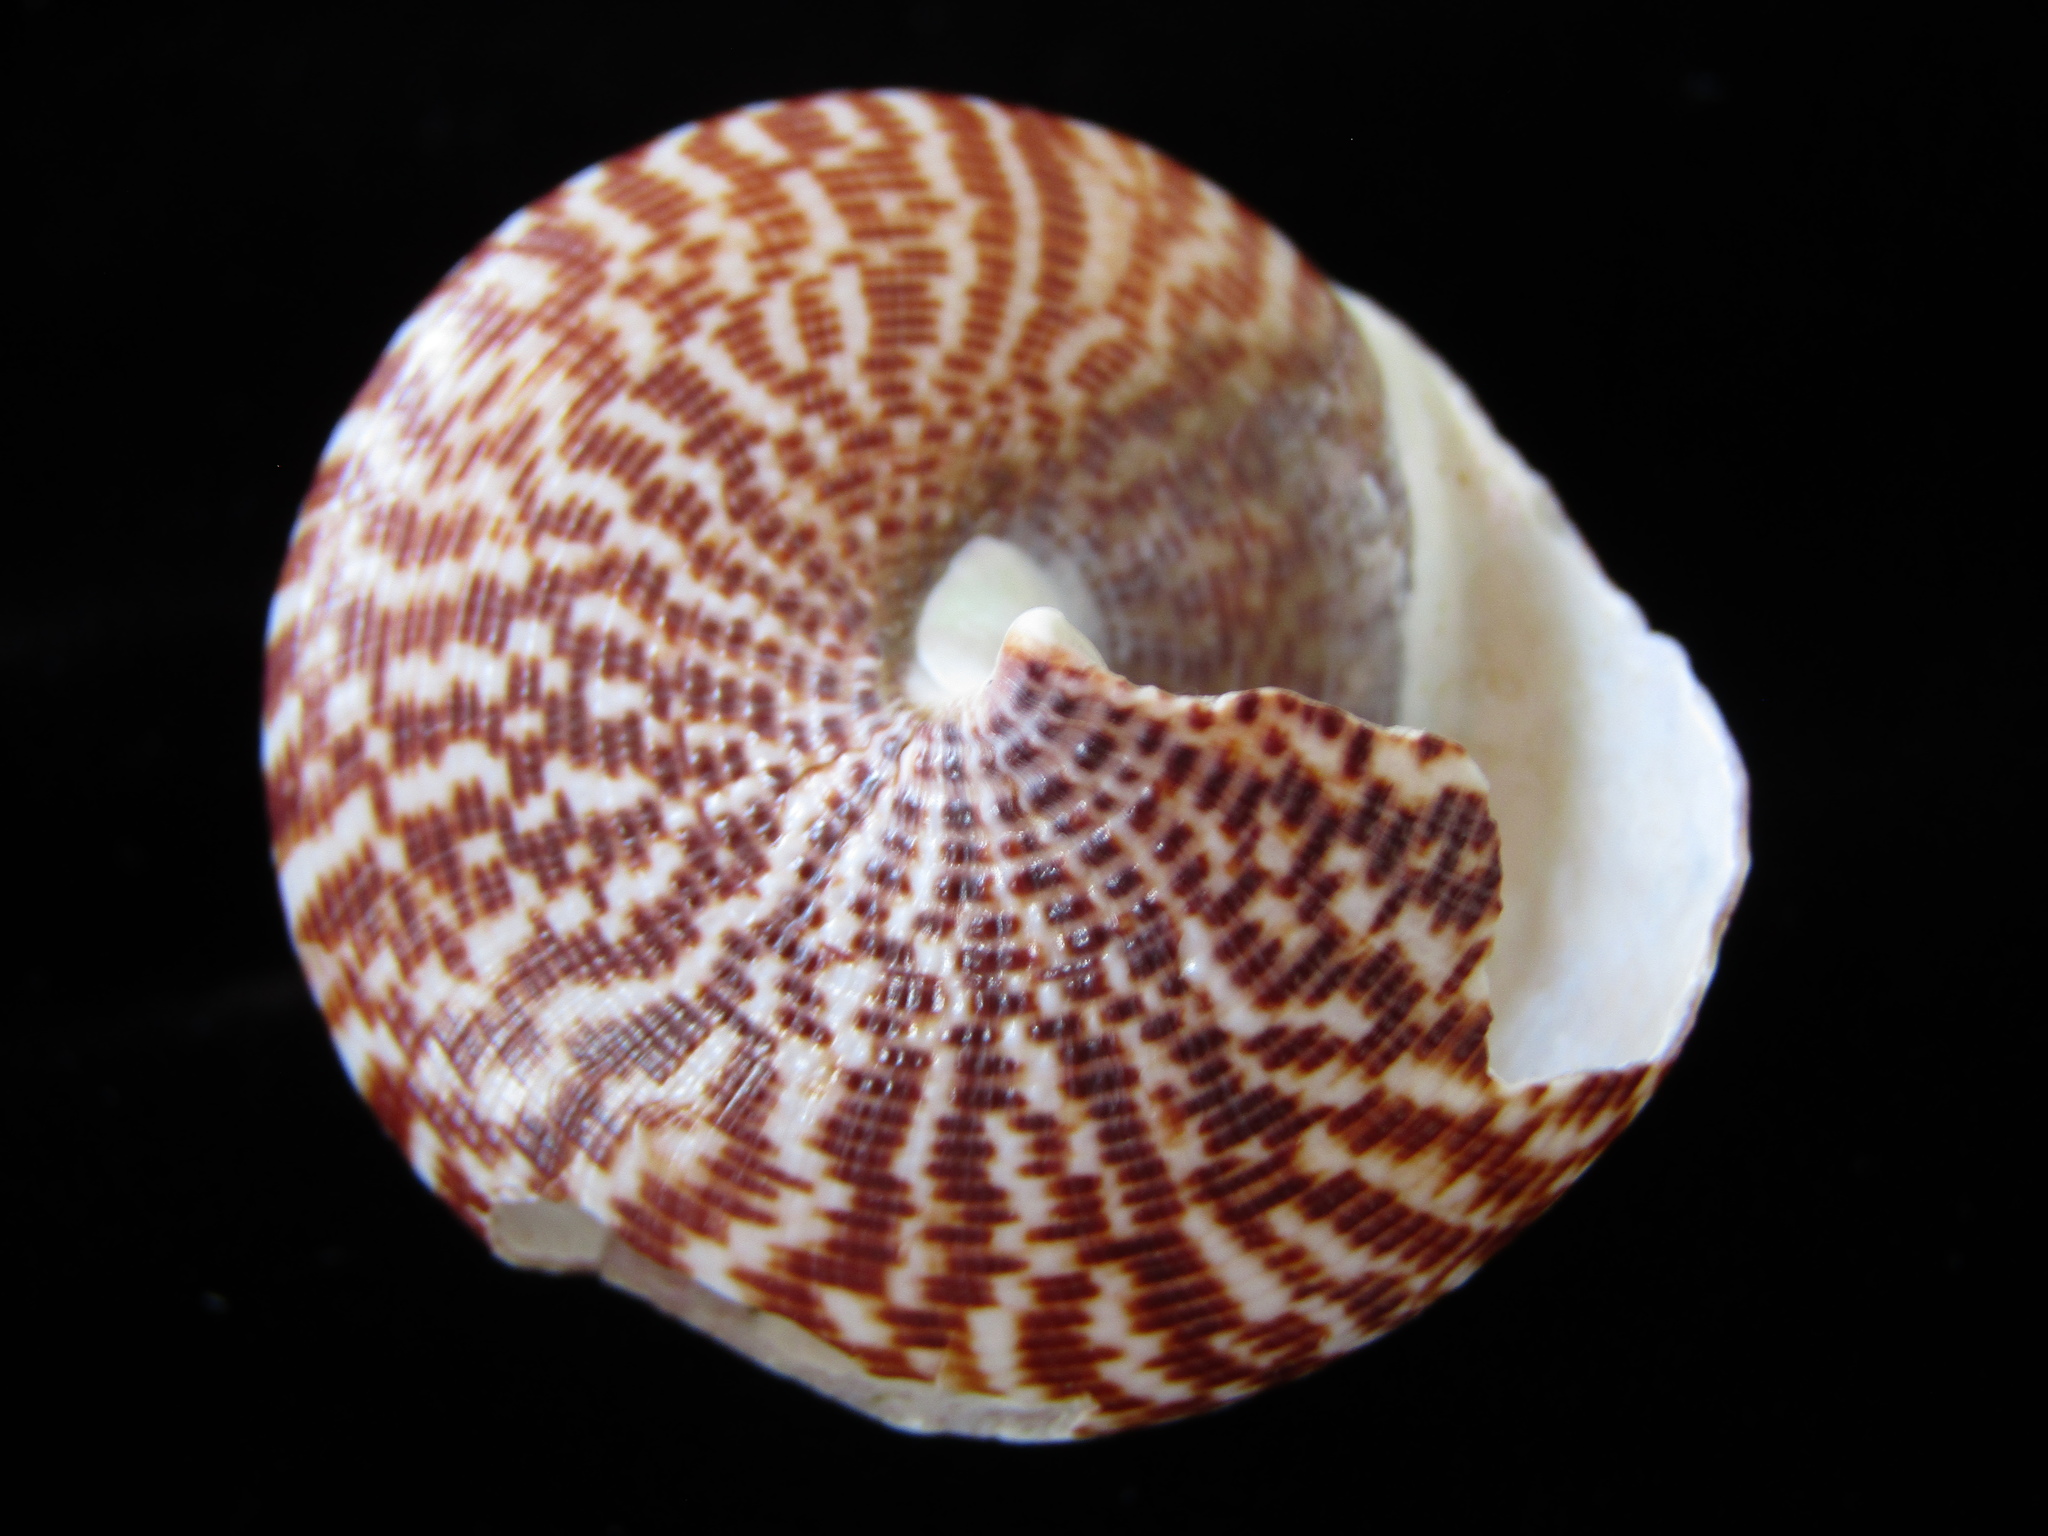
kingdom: Animalia
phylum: Mollusca
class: Gastropoda
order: Trochida
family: Calliostomatidae
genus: Maurea
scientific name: Maurea tigris
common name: Tiger maurea
